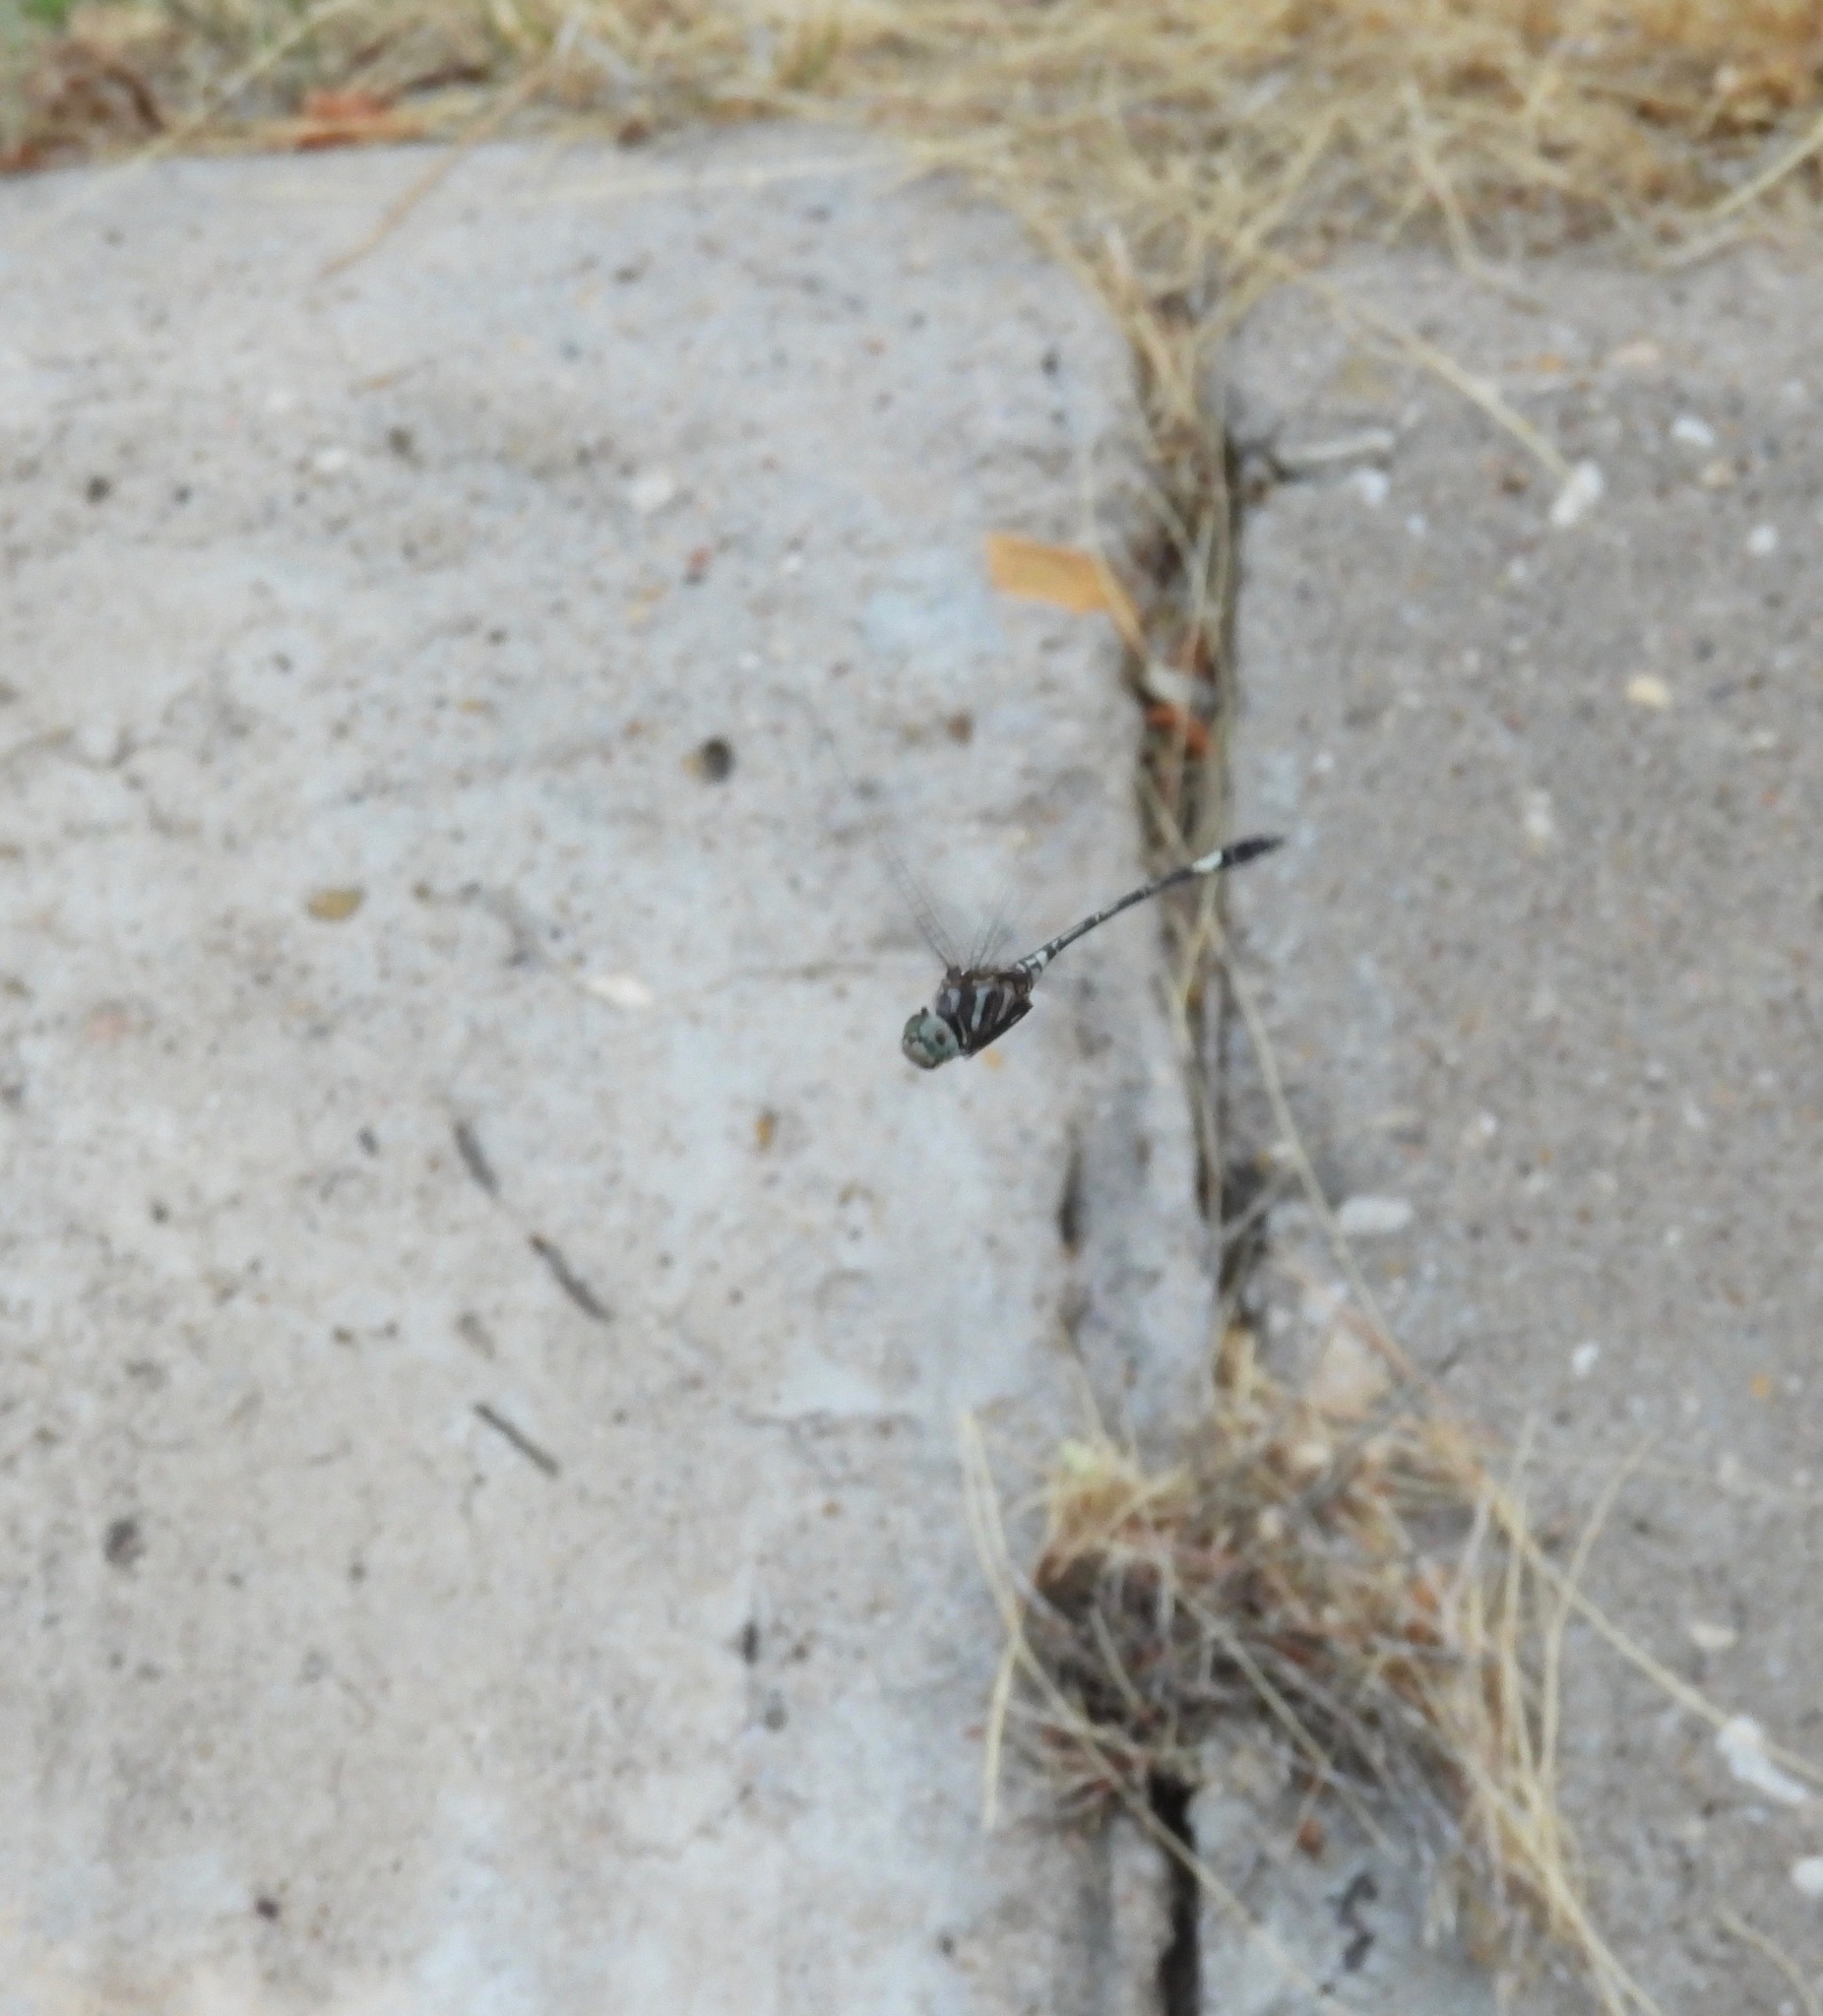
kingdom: Animalia
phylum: Arthropoda
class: Insecta
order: Odonata
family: Libellulidae
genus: Brechmorhoga
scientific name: Brechmorhoga mendax
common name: Pale-faced clubskimmer
